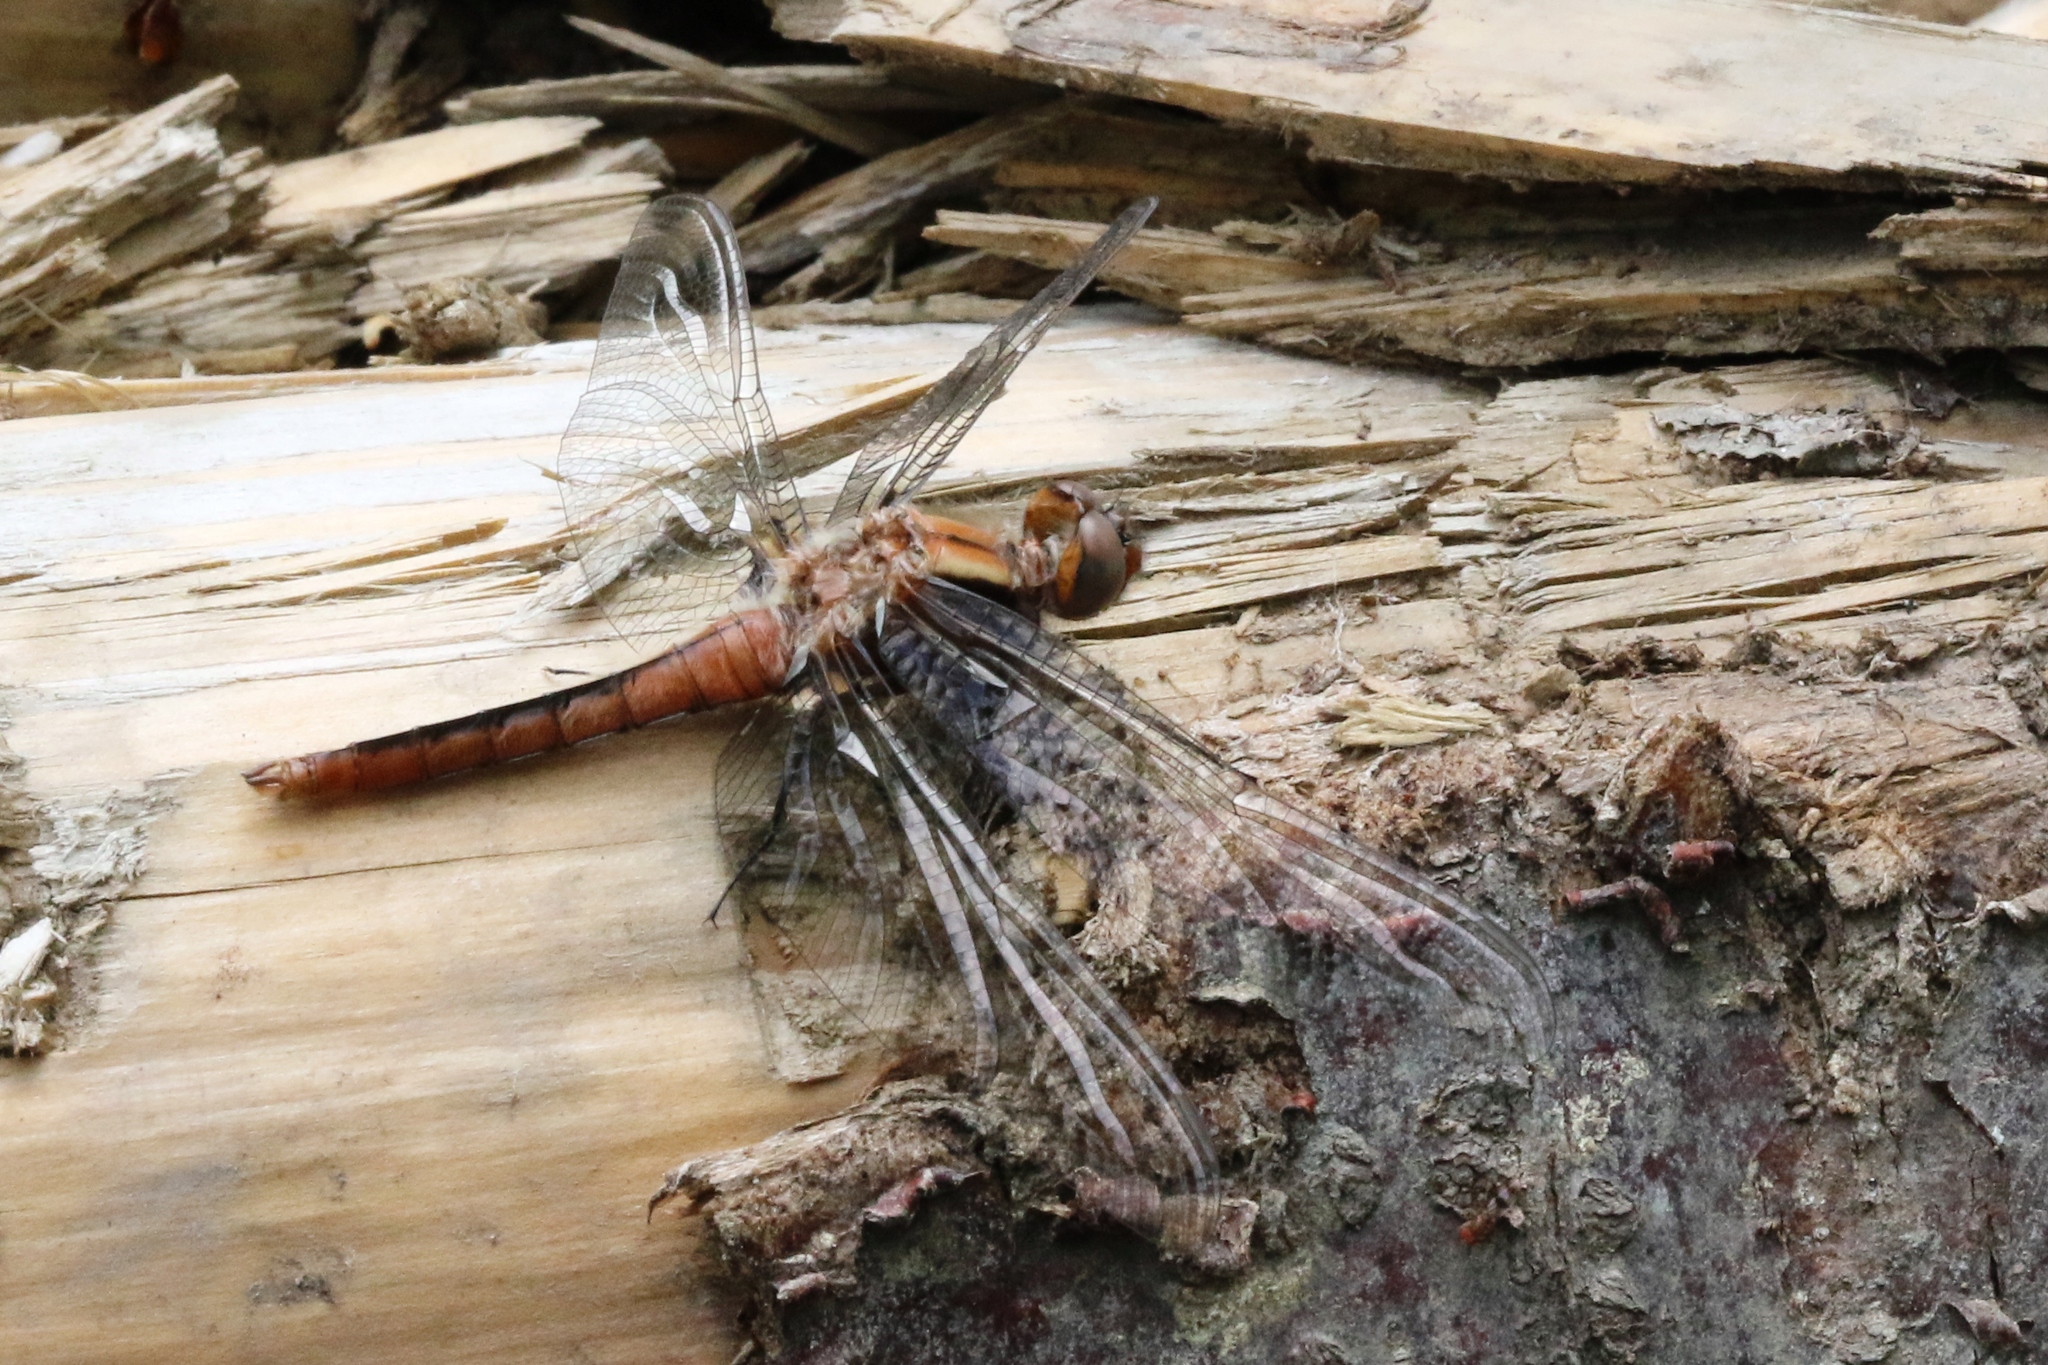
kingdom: Animalia
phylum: Arthropoda
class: Insecta
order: Odonata
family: Libellulidae
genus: Ladona
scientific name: Ladona julia
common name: Chalk-fronted corporal
